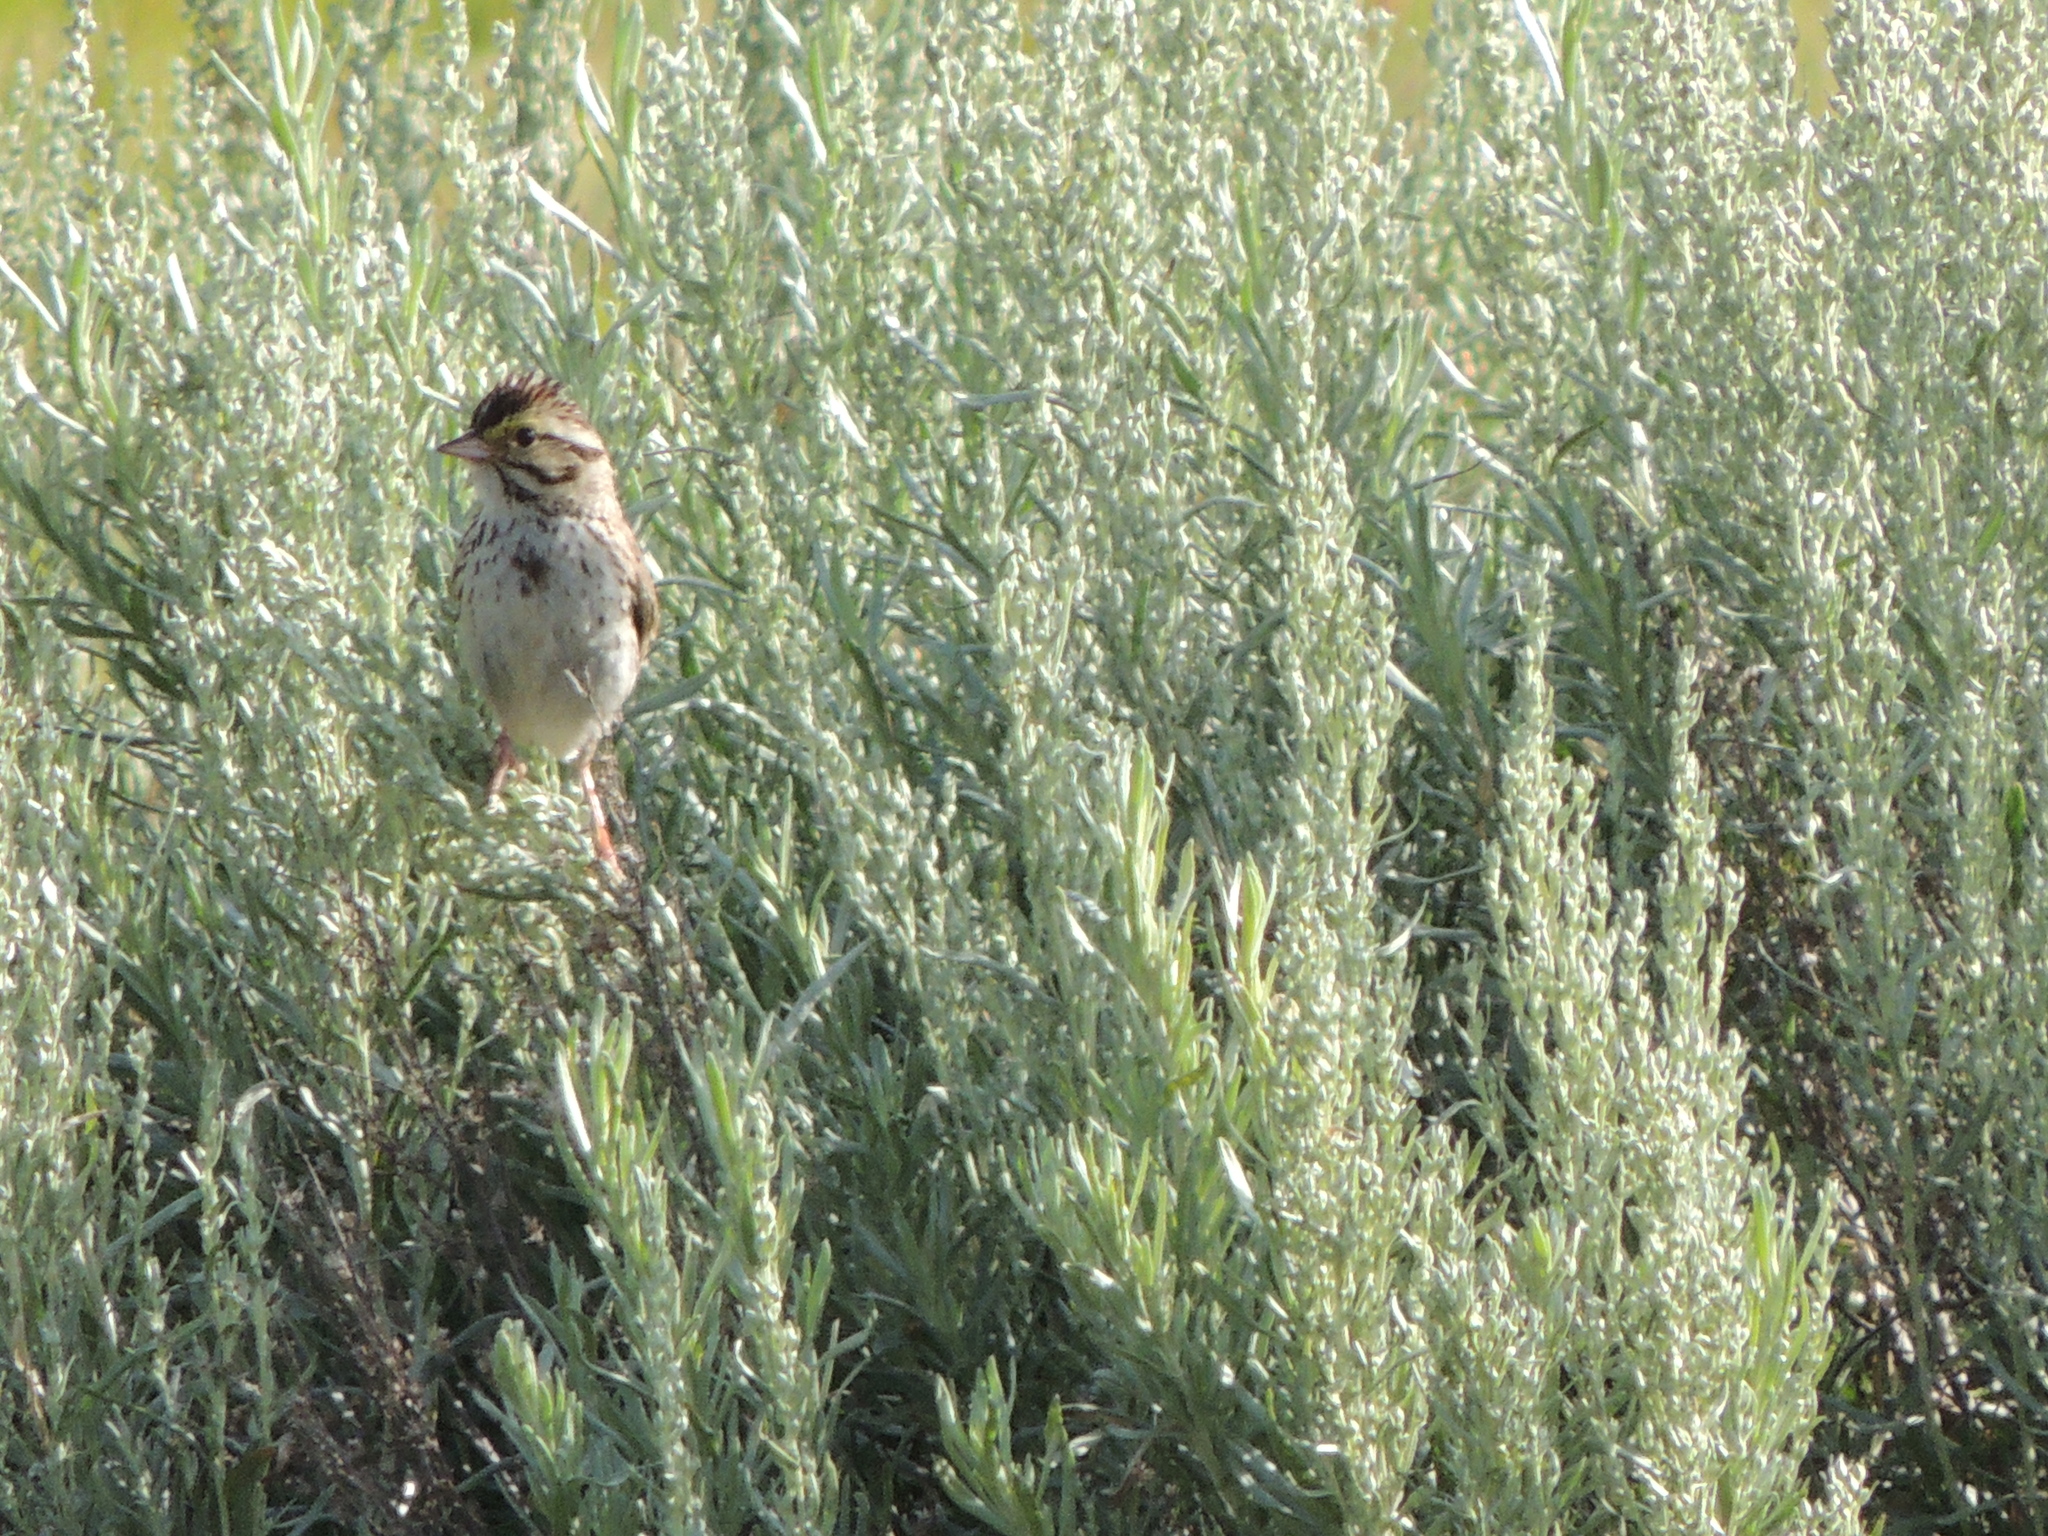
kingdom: Animalia
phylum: Chordata
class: Aves
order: Passeriformes
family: Passerellidae
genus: Passerculus
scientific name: Passerculus sandwichensis
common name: Savannah sparrow
